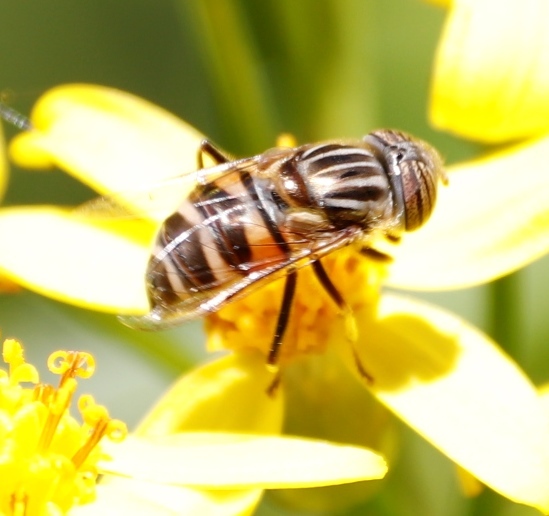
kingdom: Animalia
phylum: Arthropoda
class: Insecta
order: Diptera
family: Syrphidae
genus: Eristalinus
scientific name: Eristalinus barclayi
